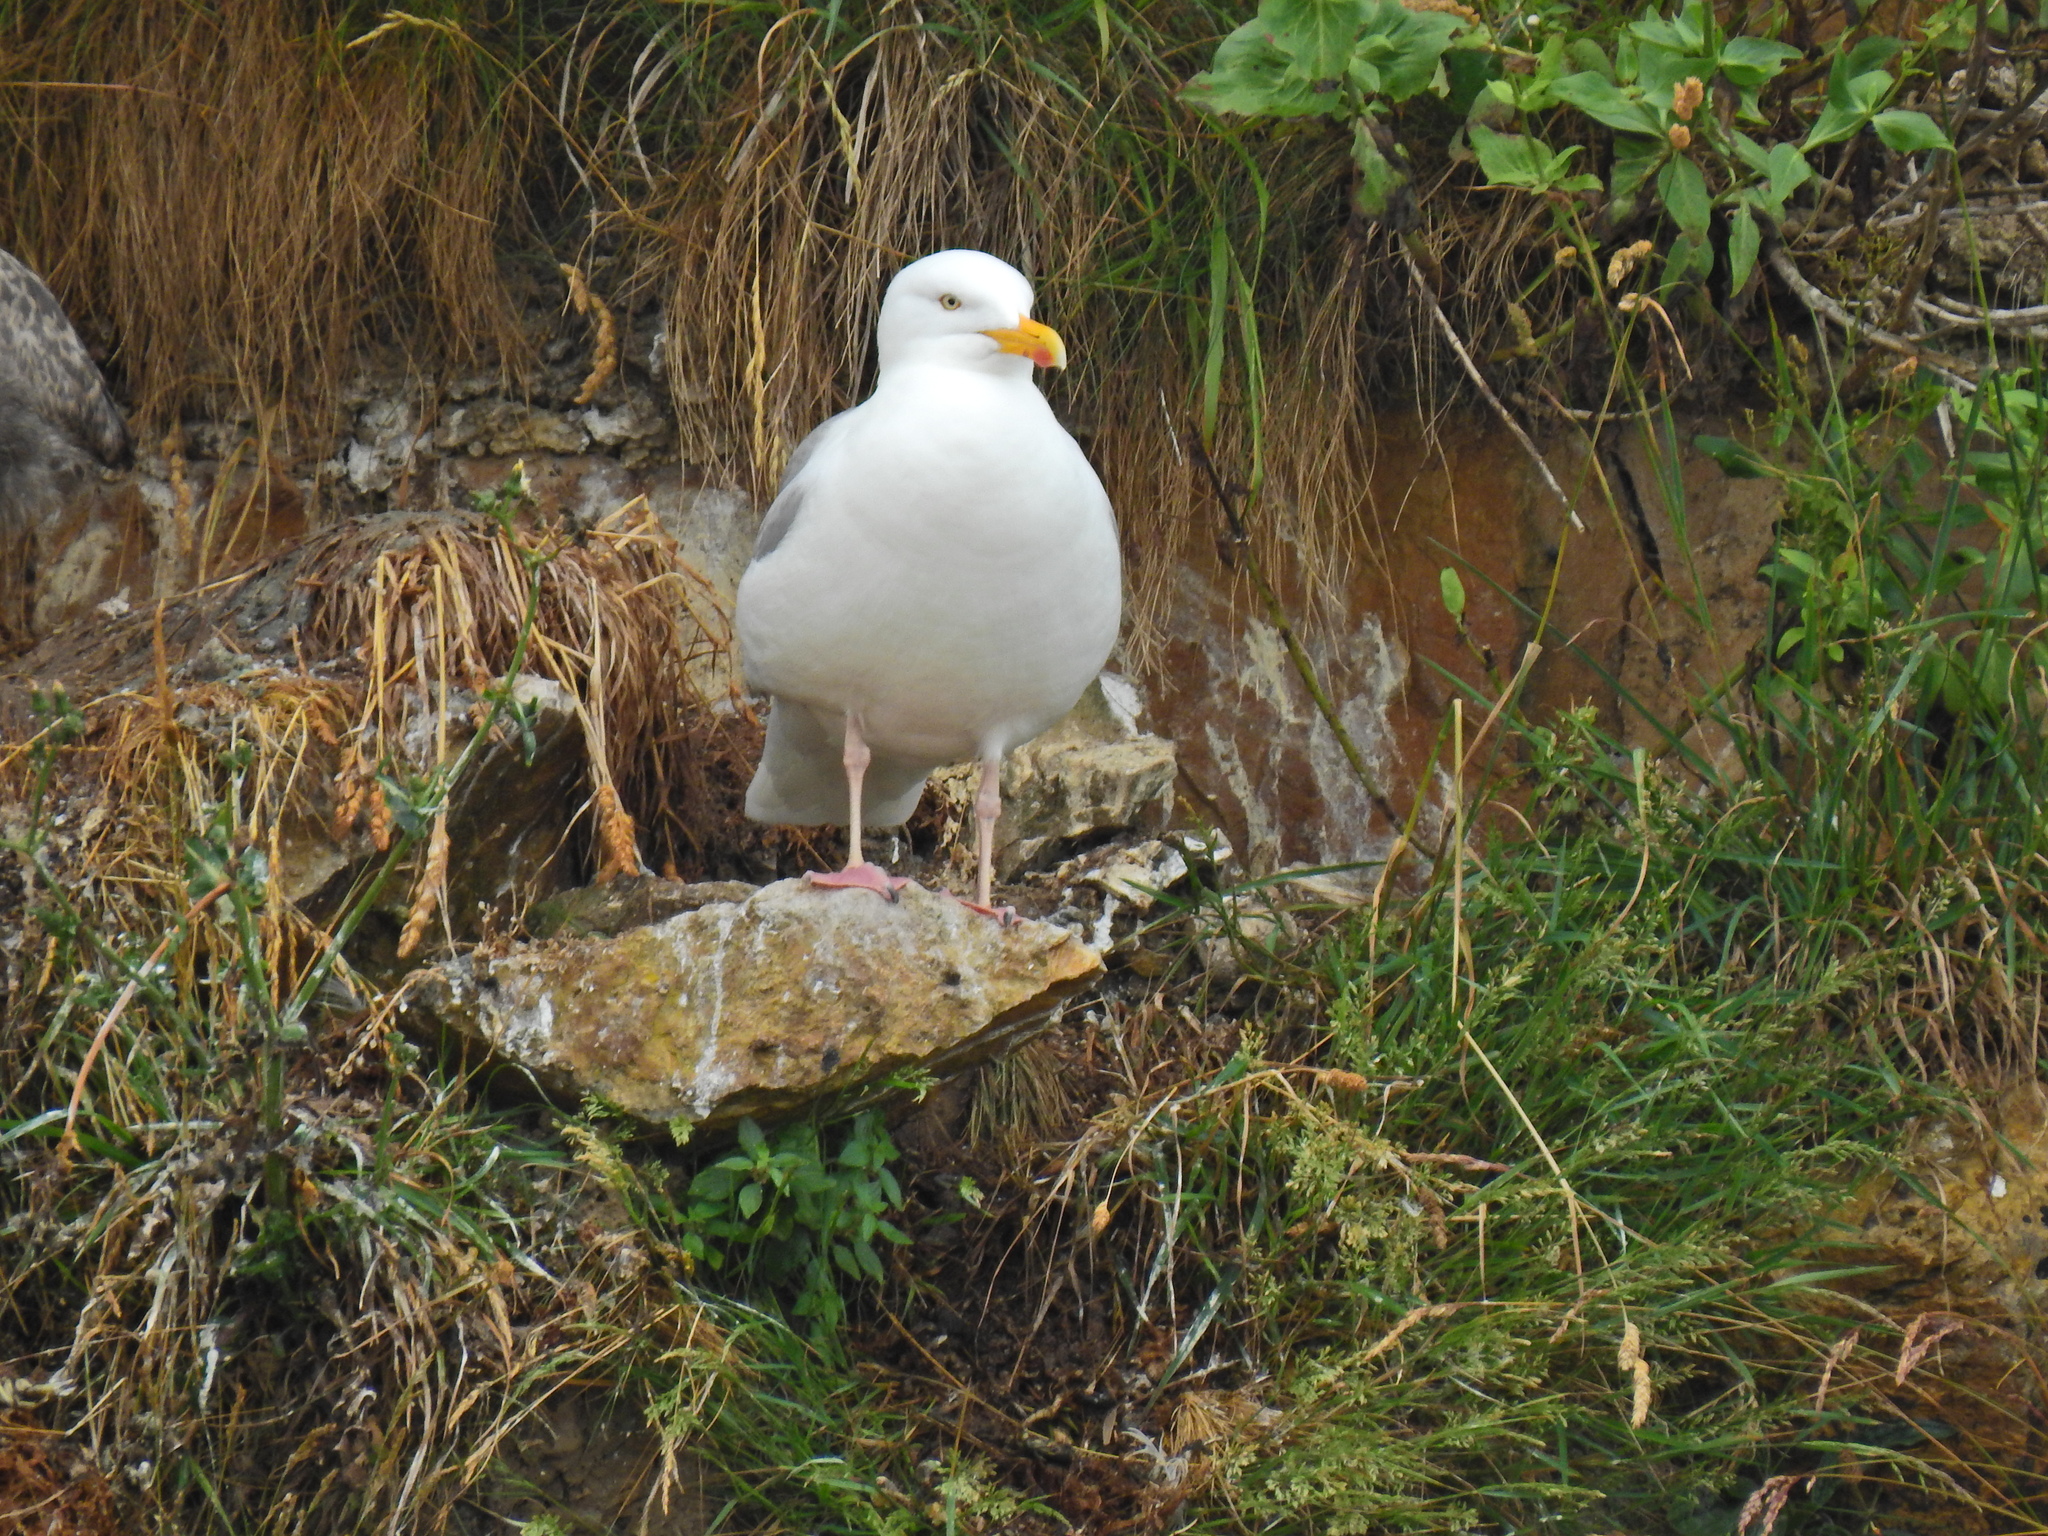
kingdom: Animalia
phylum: Chordata
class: Aves
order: Charadriiformes
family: Laridae
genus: Larus
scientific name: Larus argentatus
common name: Herring gull
